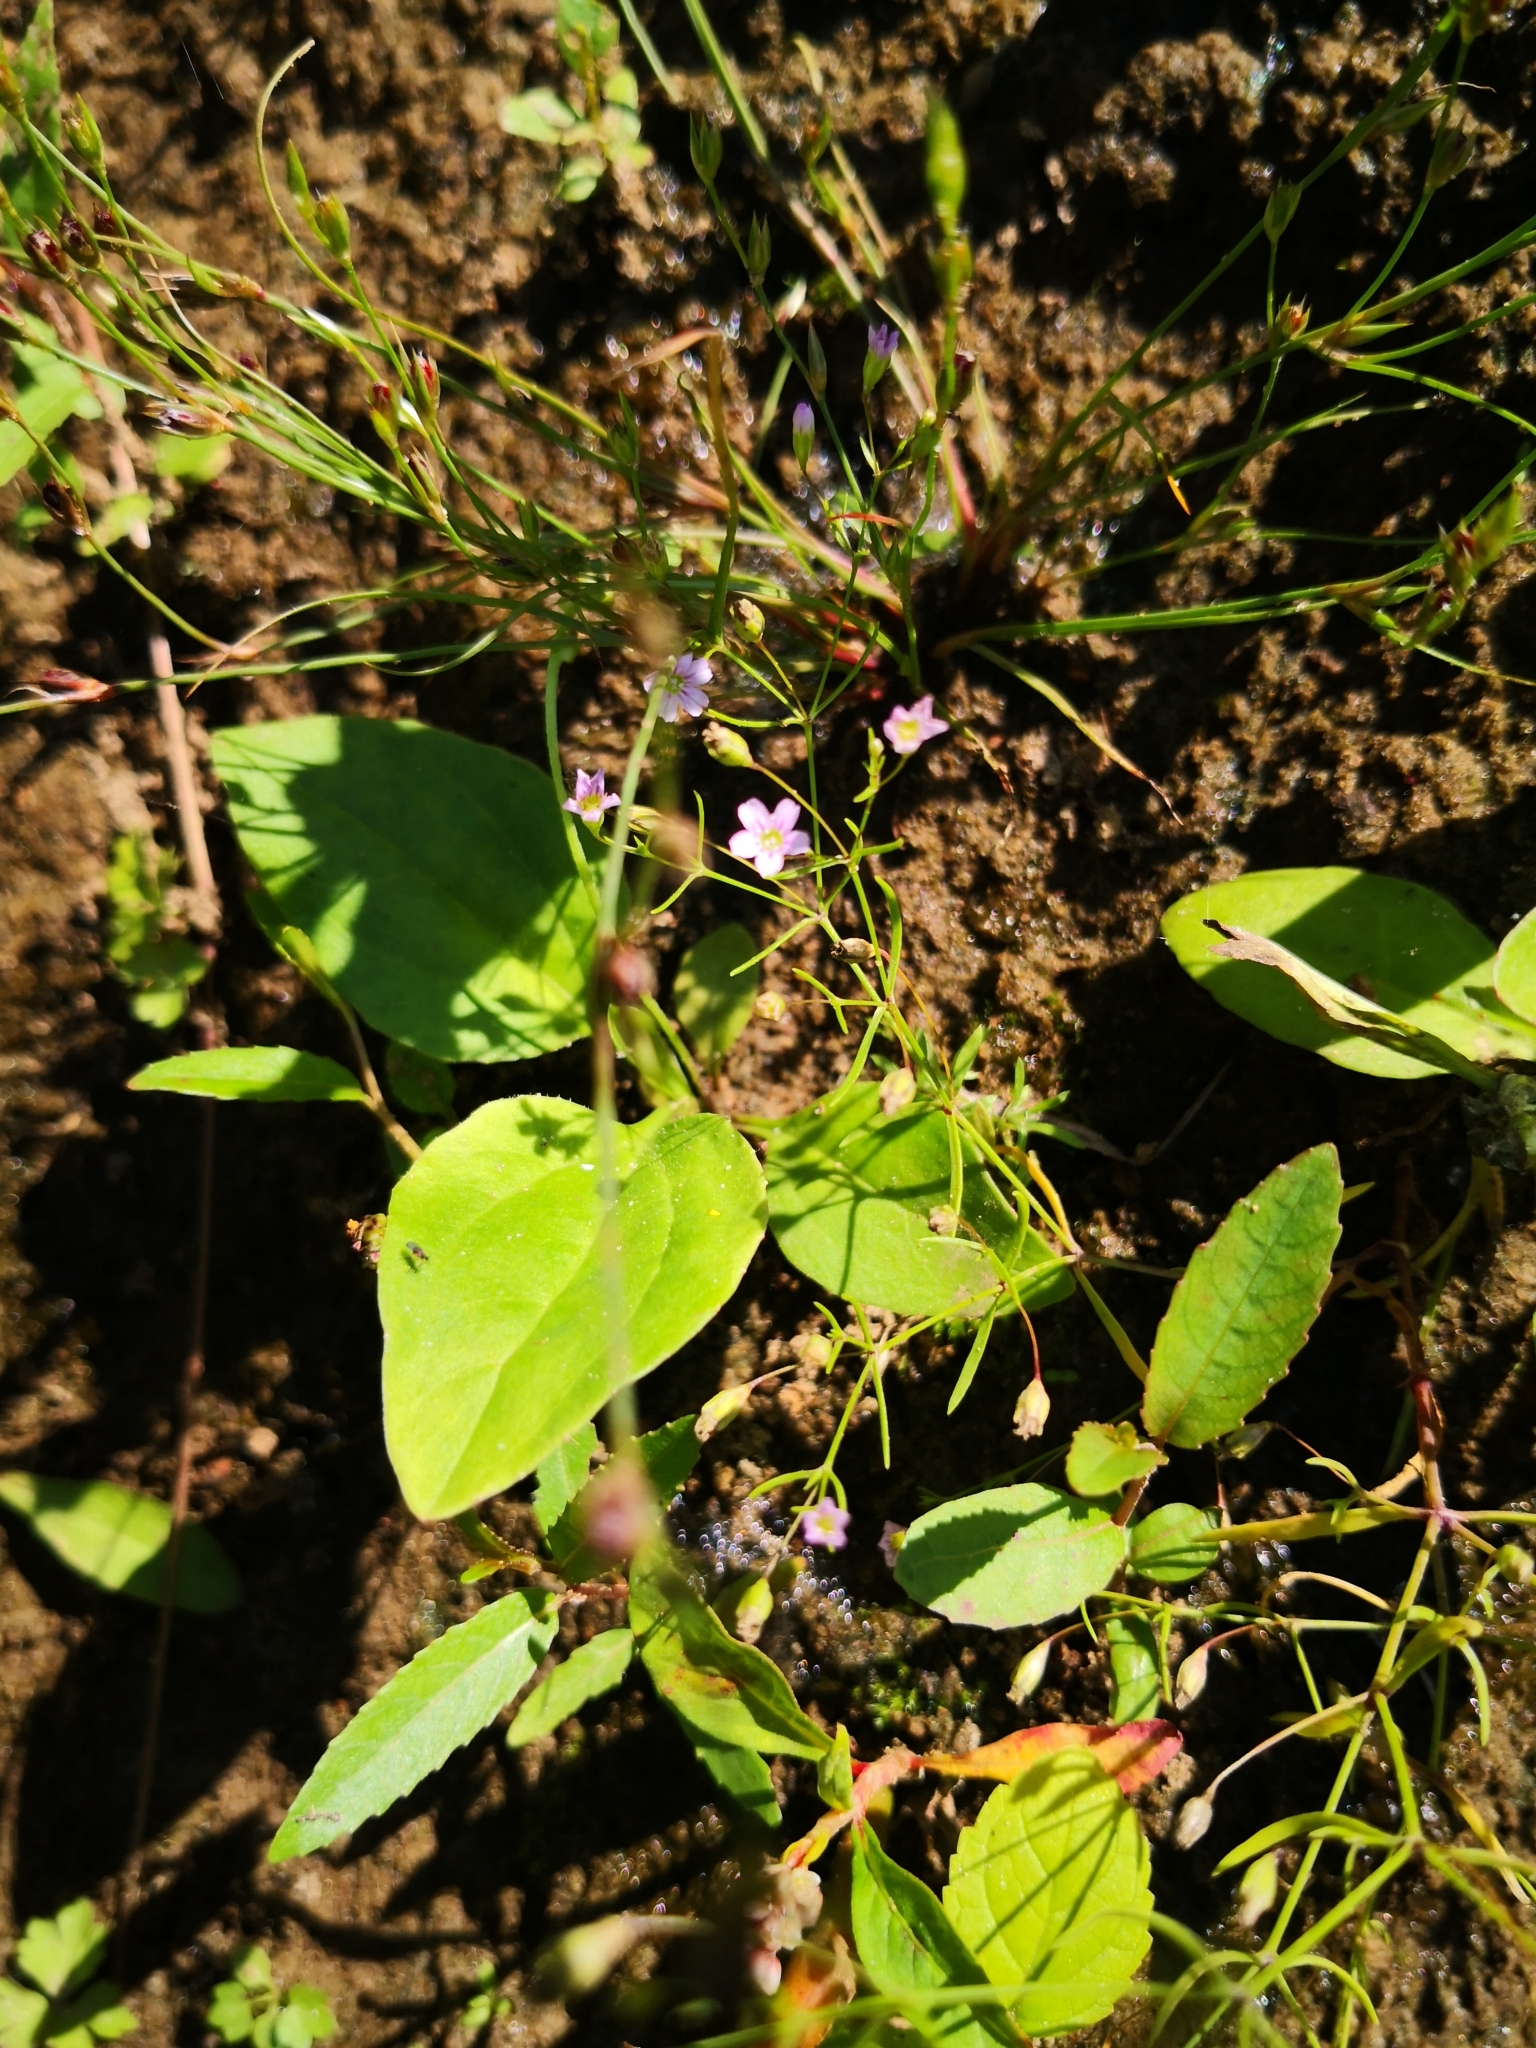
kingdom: Plantae
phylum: Tracheophyta
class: Magnoliopsida
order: Caryophyllales
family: Caryophyllaceae
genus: Psammophiliella
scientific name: Psammophiliella muralis
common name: Cushion baby's-breath
